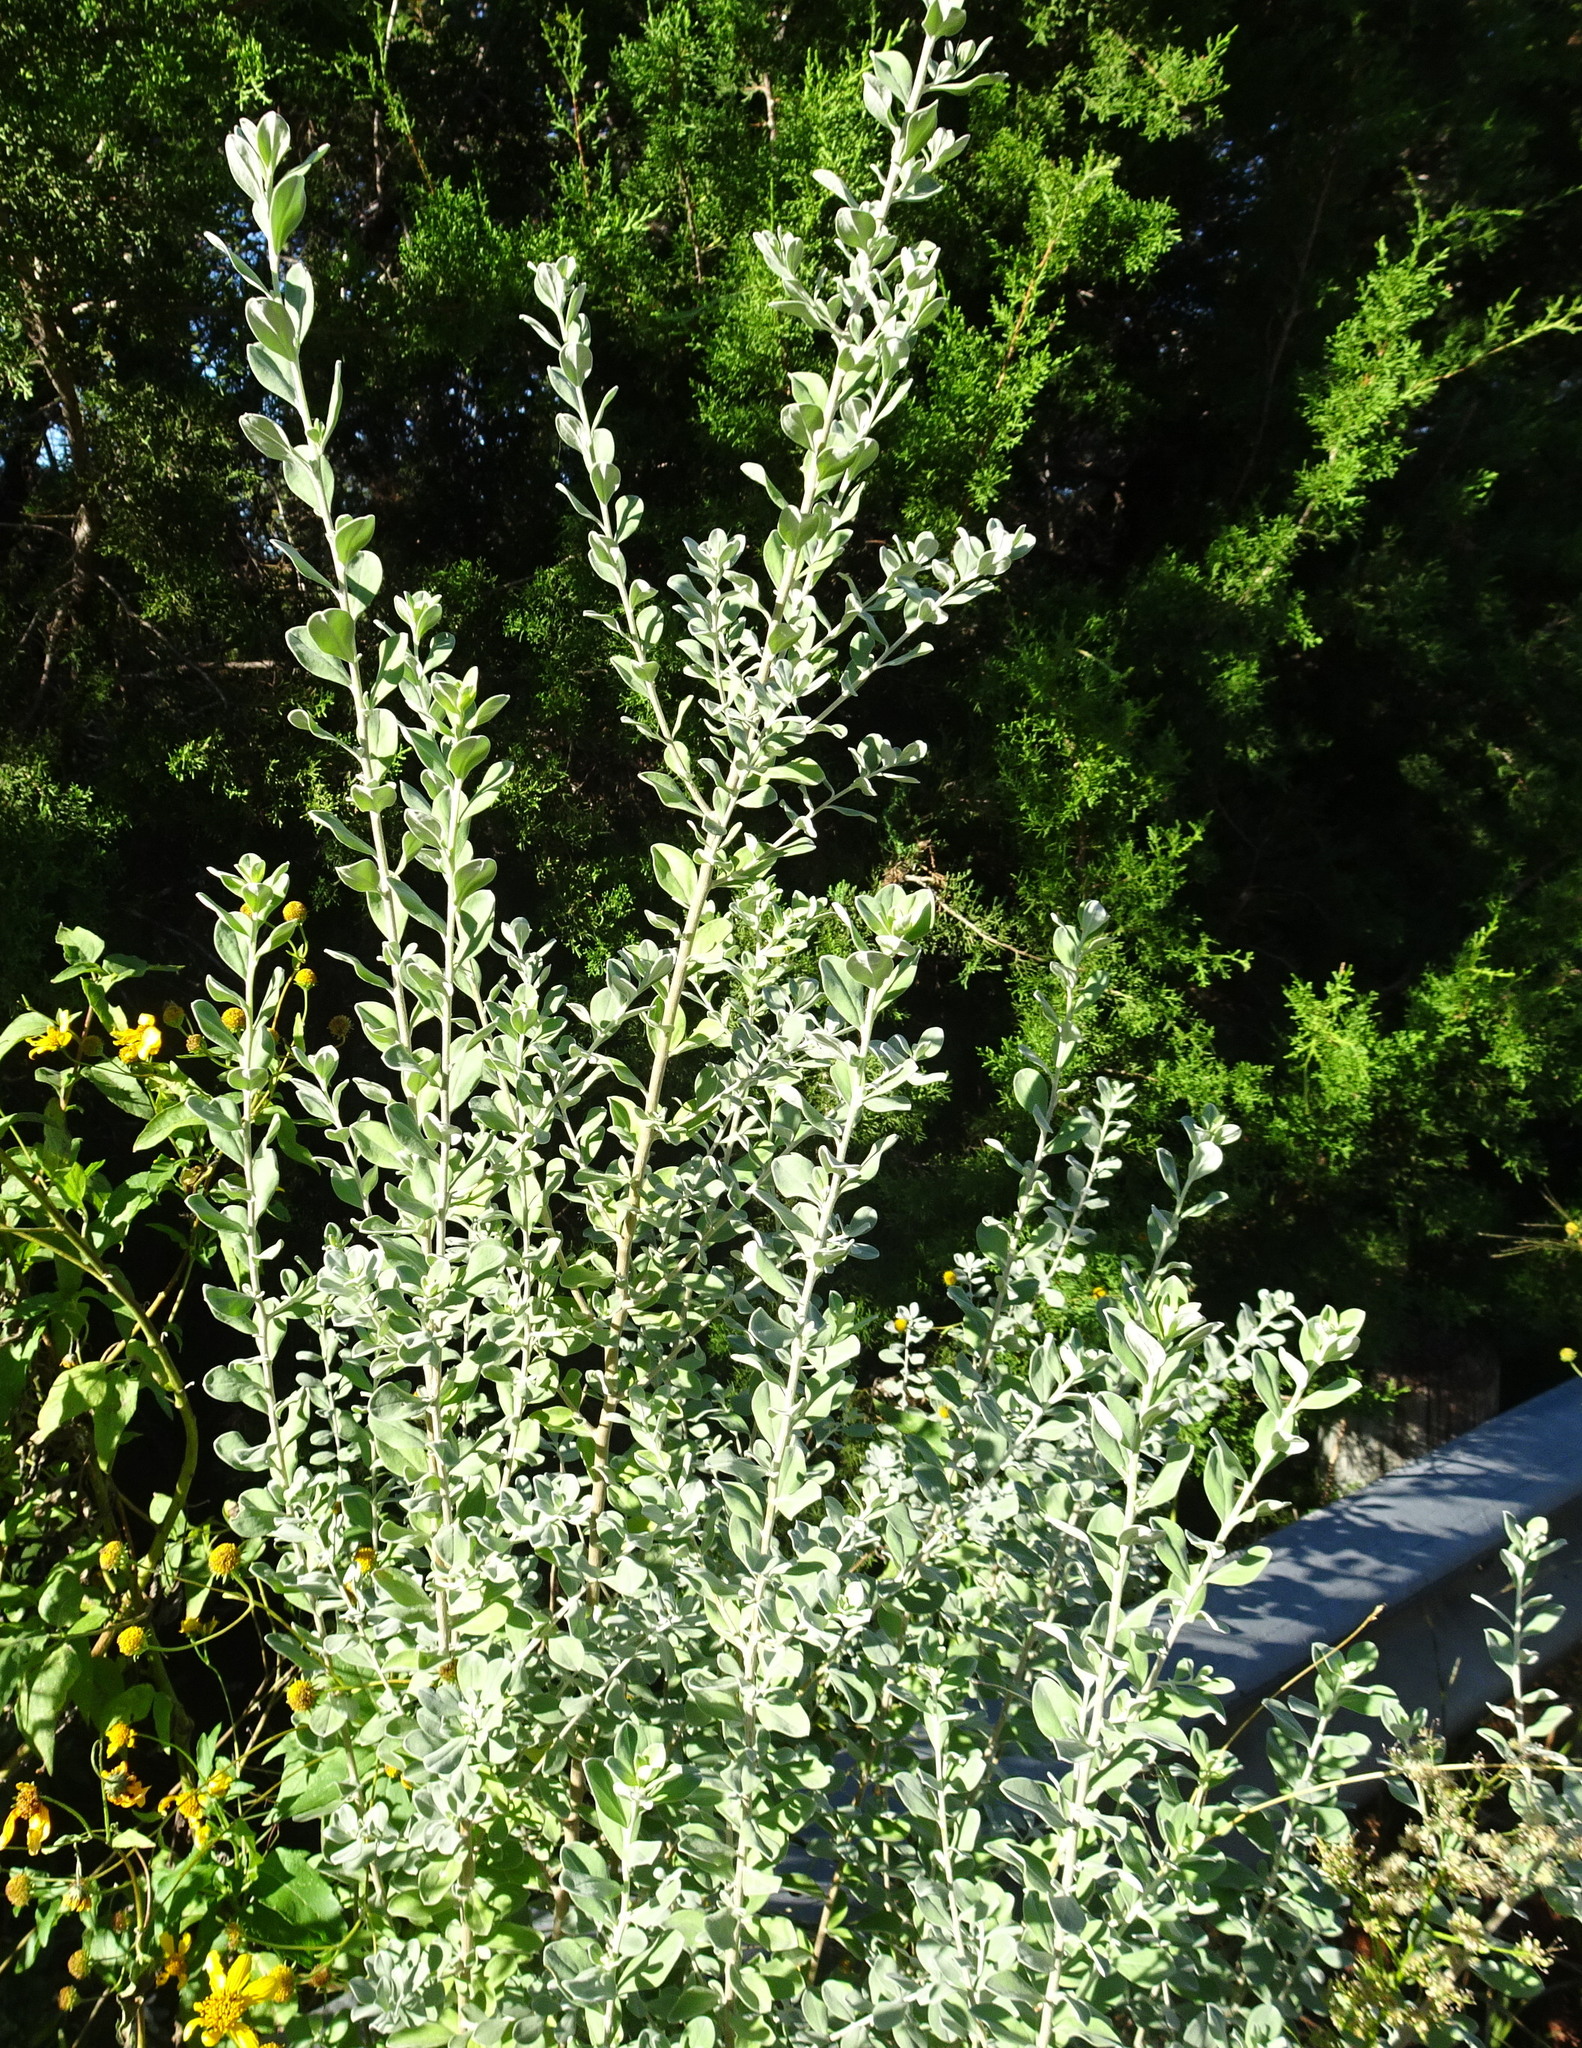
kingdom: Plantae
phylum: Tracheophyta
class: Magnoliopsida
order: Lamiales
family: Scrophulariaceae
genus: Leucophyllum
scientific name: Leucophyllum frutescens
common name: Texas silverleaf
